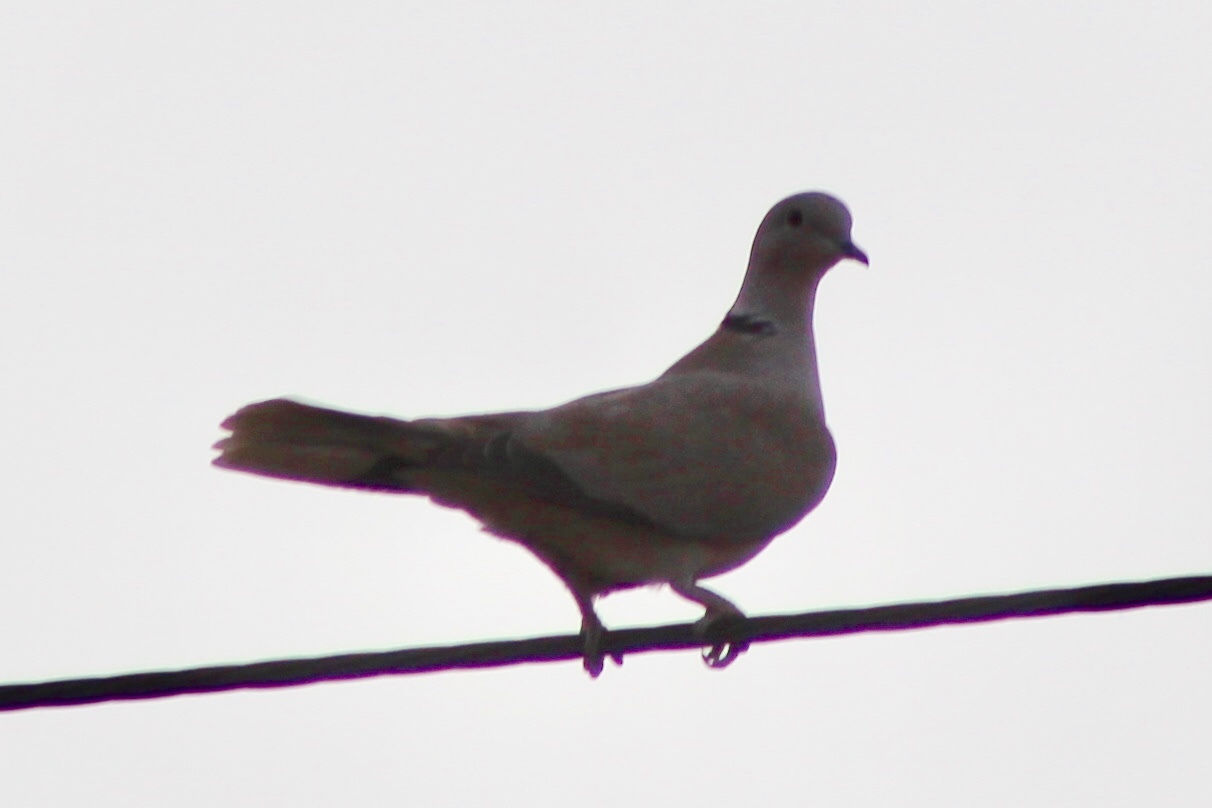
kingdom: Animalia
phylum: Chordata
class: Aves
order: Columbiformes
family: Columbidae
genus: Streptopelia
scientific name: Streptopelia decaocto
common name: Eurasian collared dove
